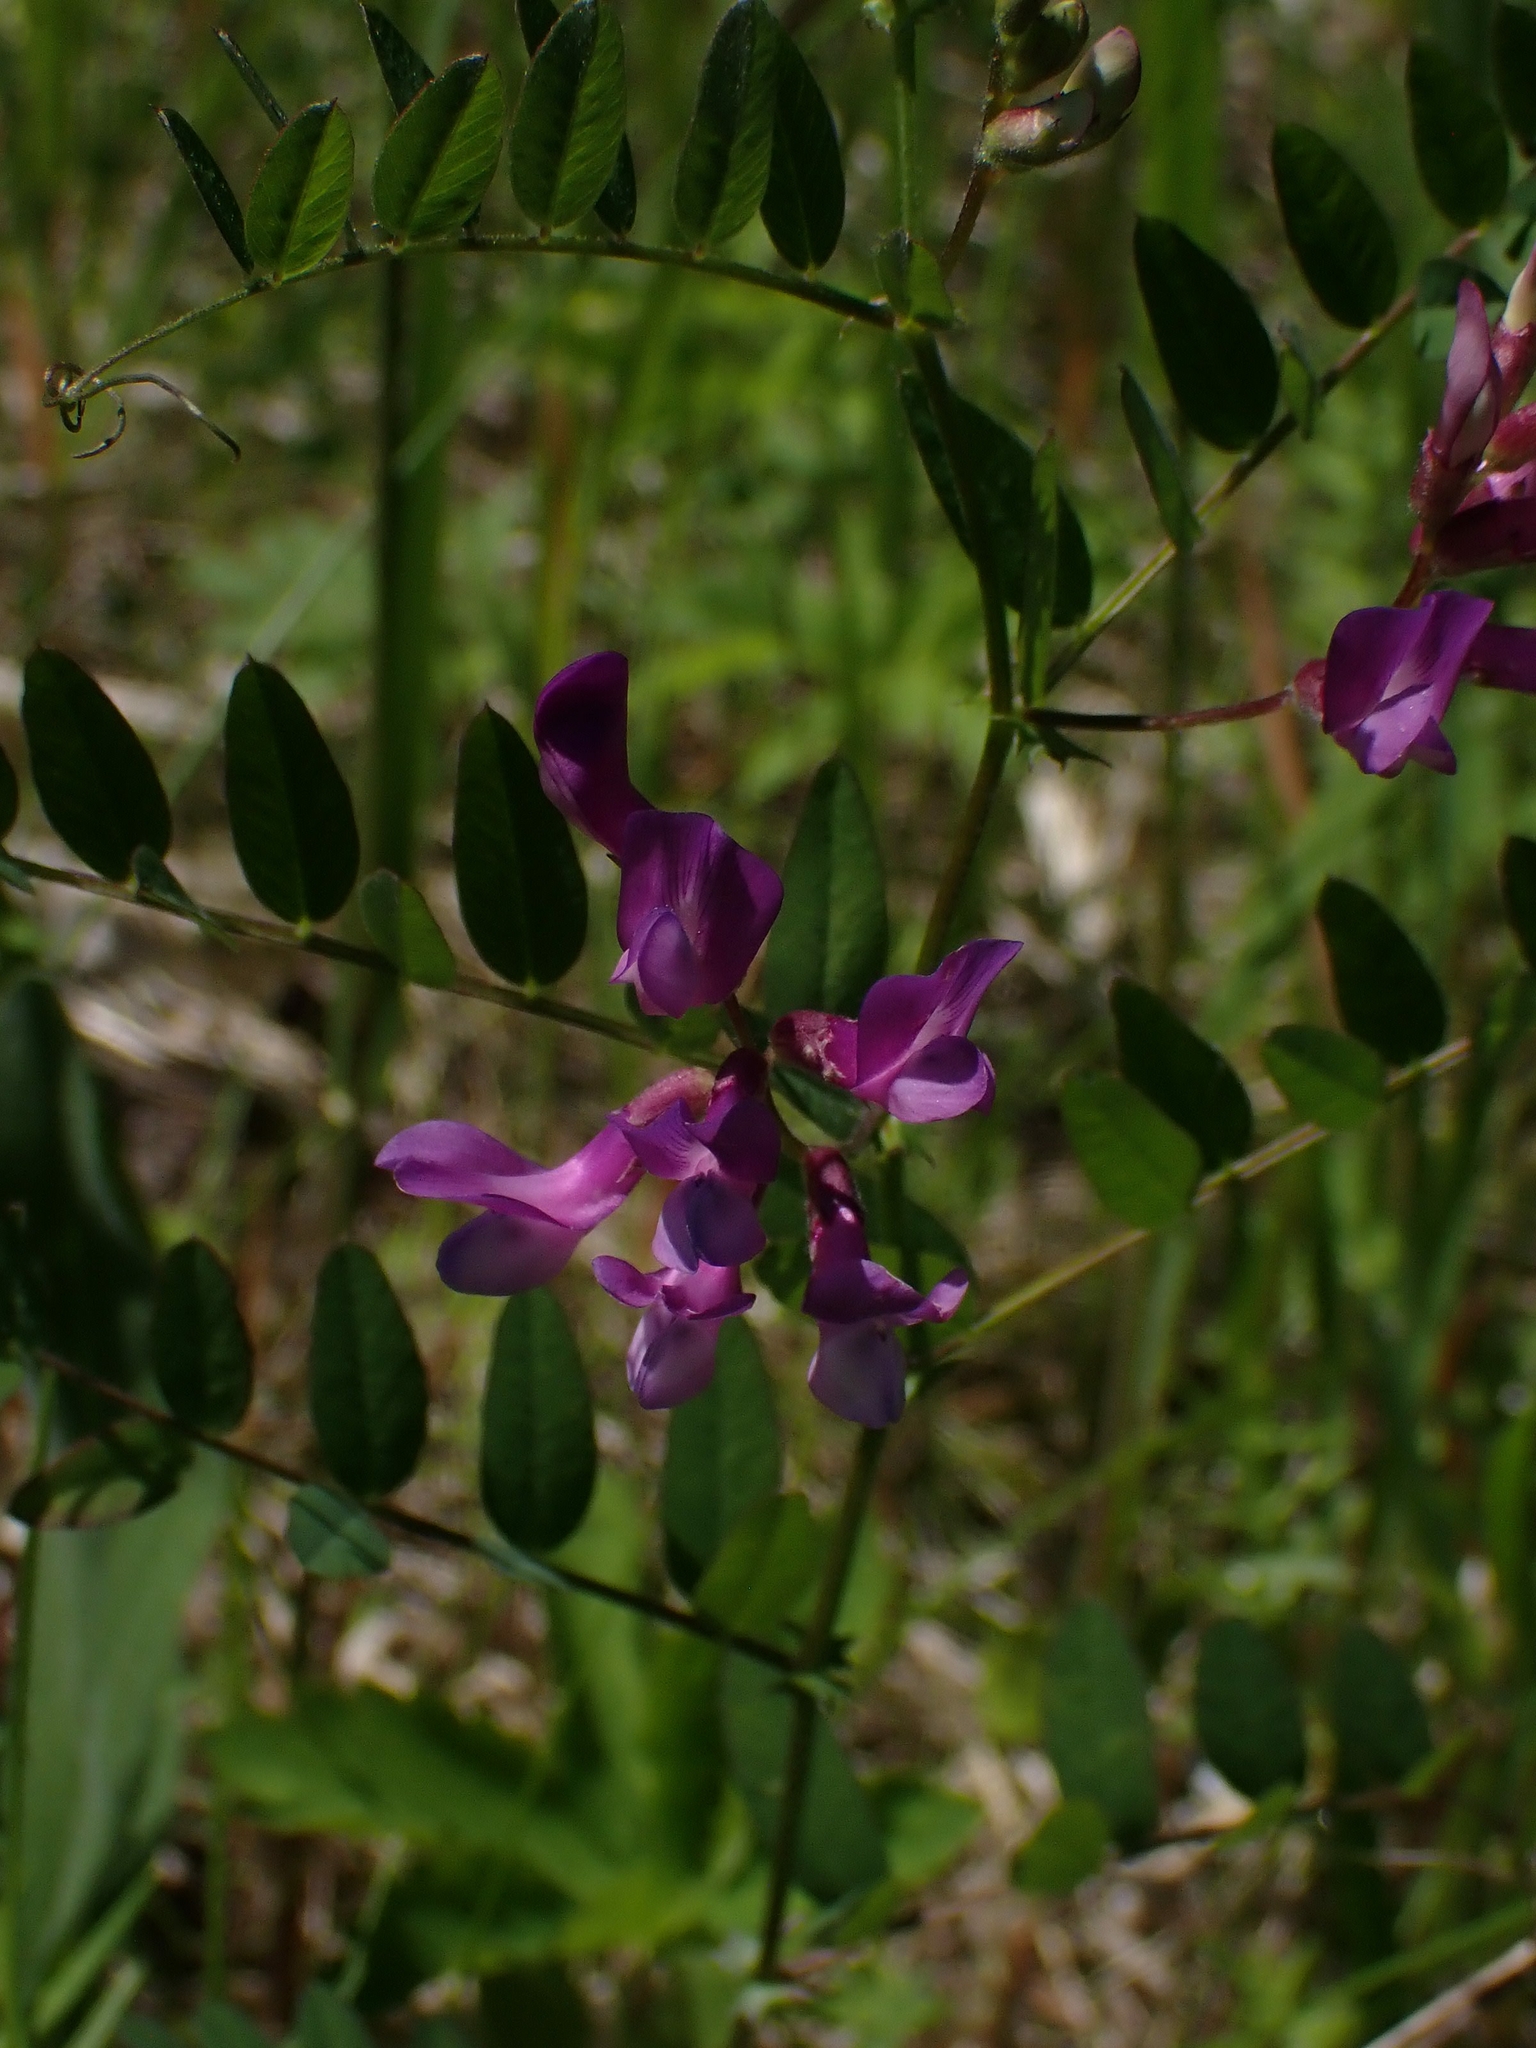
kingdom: Plantae
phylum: Tracheophyta
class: Magnoliopsida
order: Fabales
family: Fabaceae
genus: Vicia
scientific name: Vicia americana
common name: American vetch
